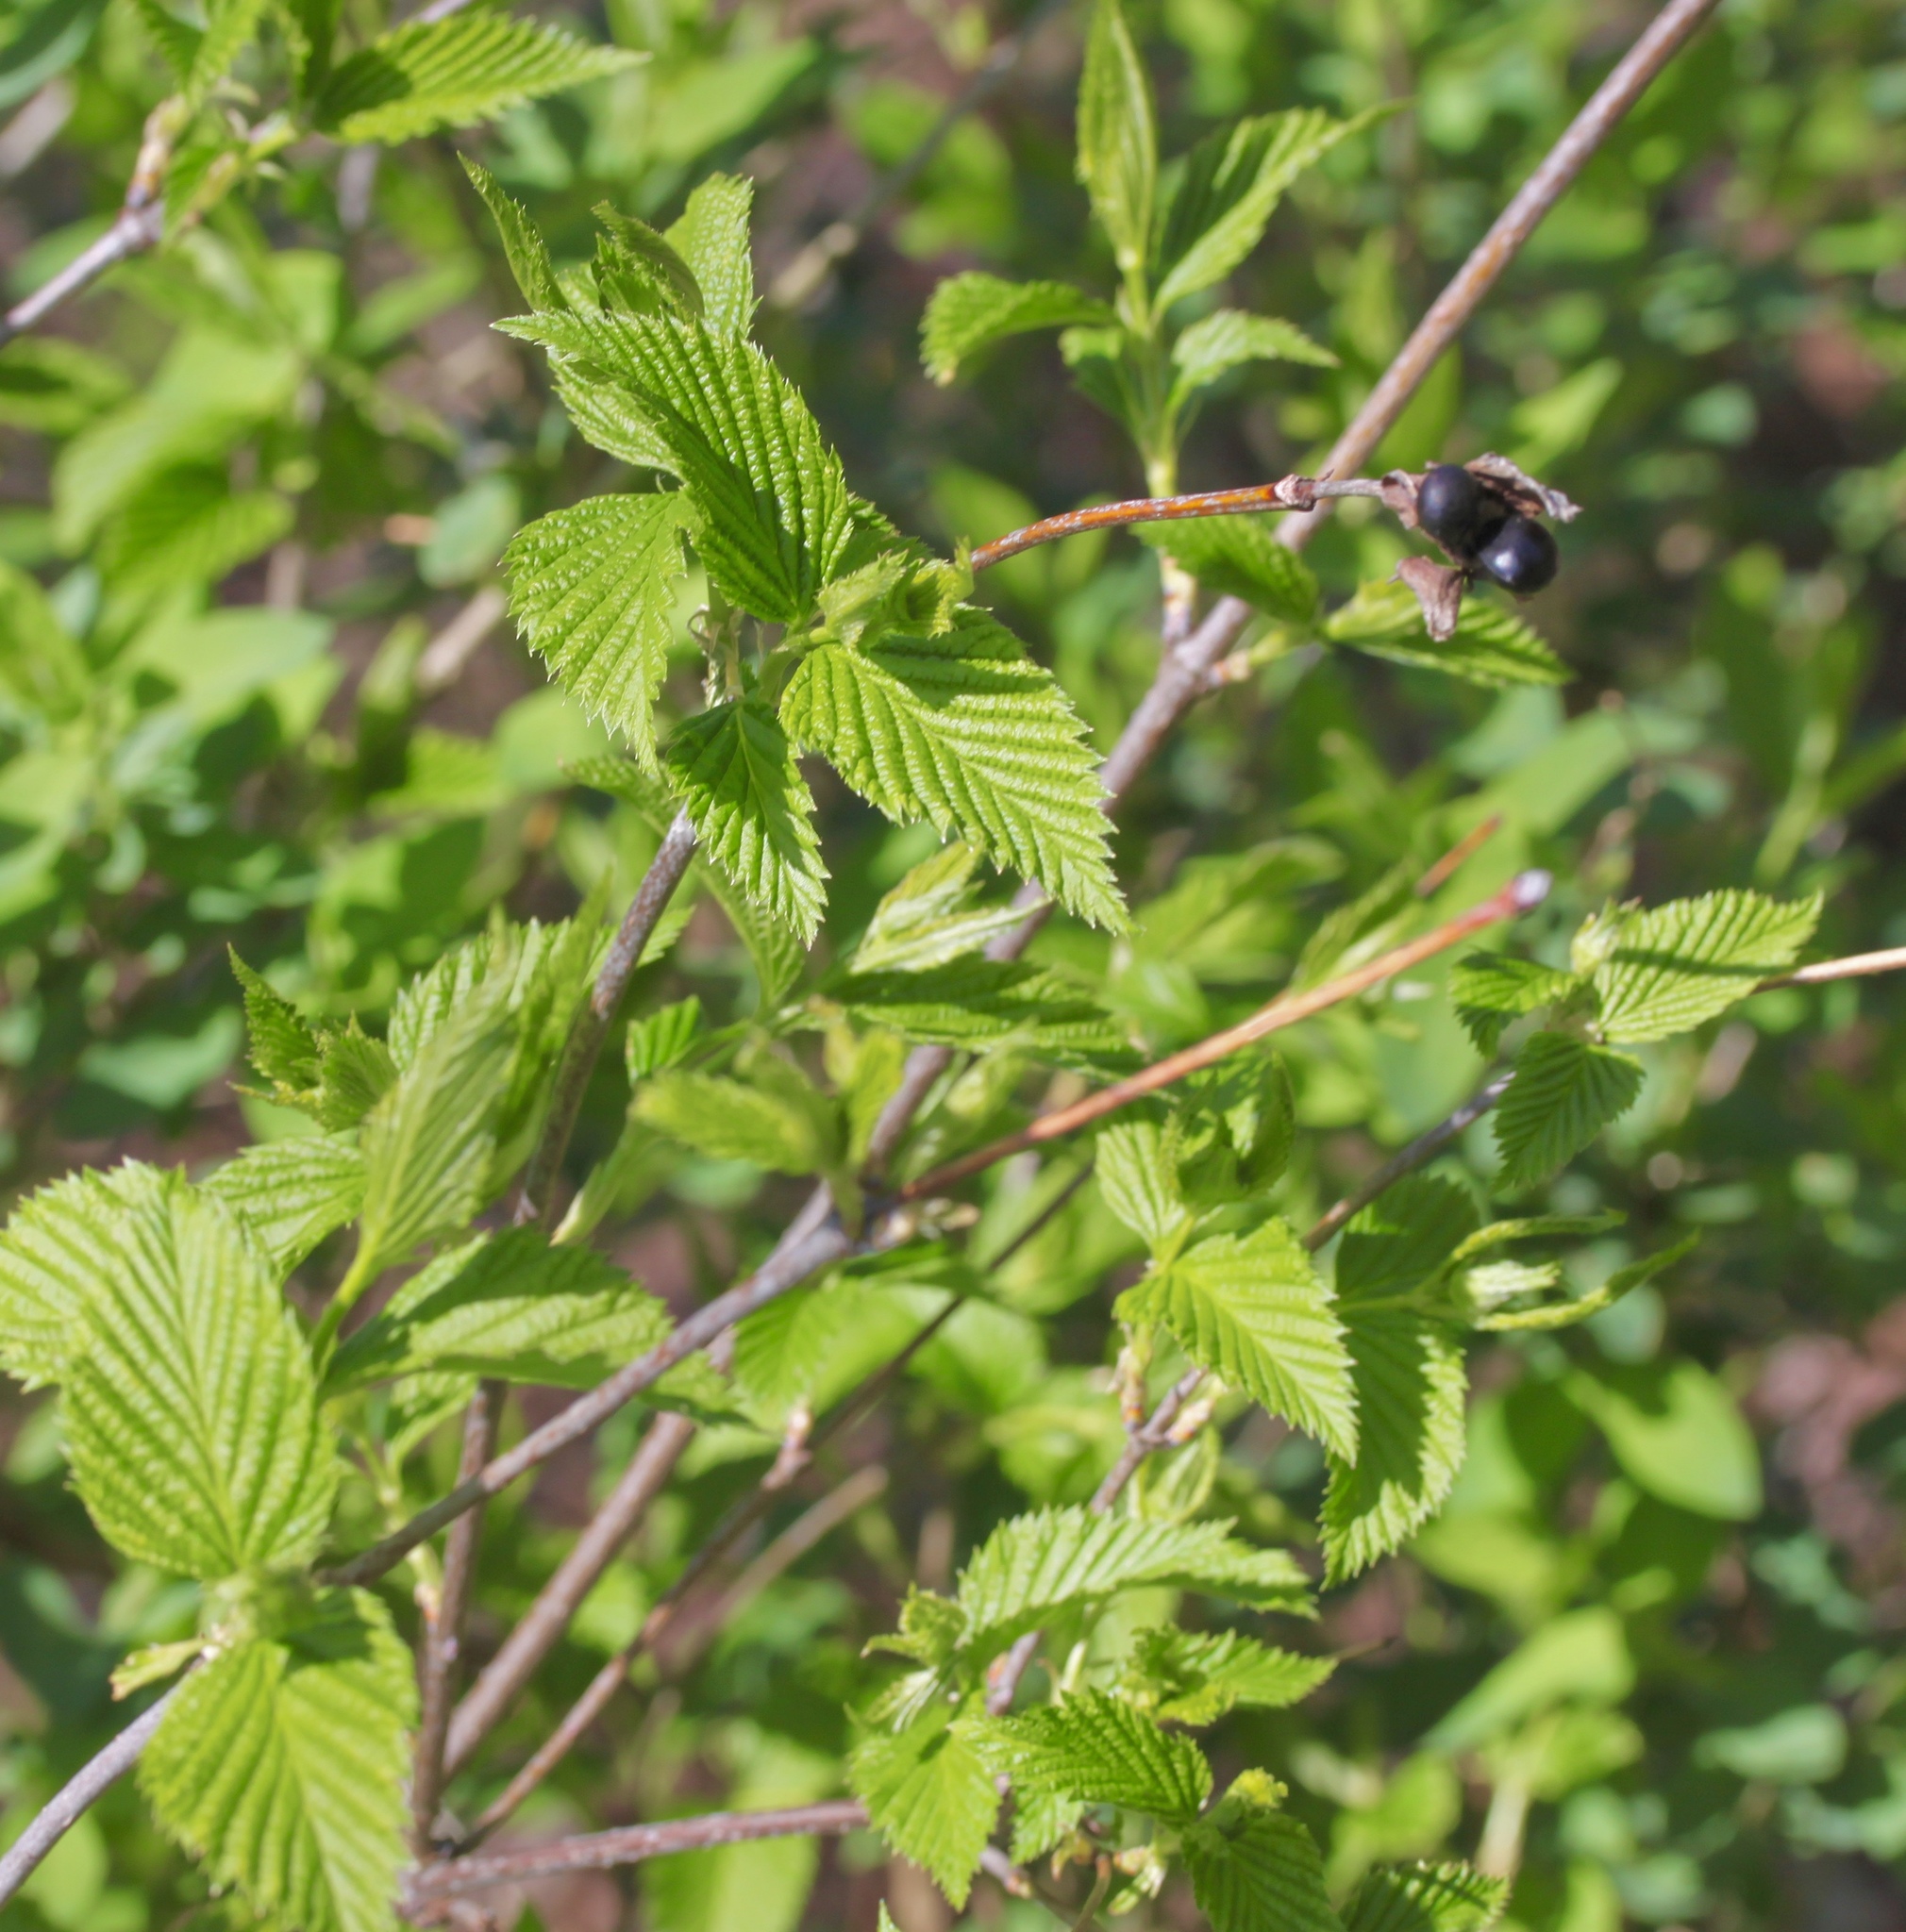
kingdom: Plantae
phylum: Tracheophyta
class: Magnoliopsida
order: Rosales
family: Rosaceae
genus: Rhodotypos
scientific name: Rhodotypos scandens
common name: Jetbead
